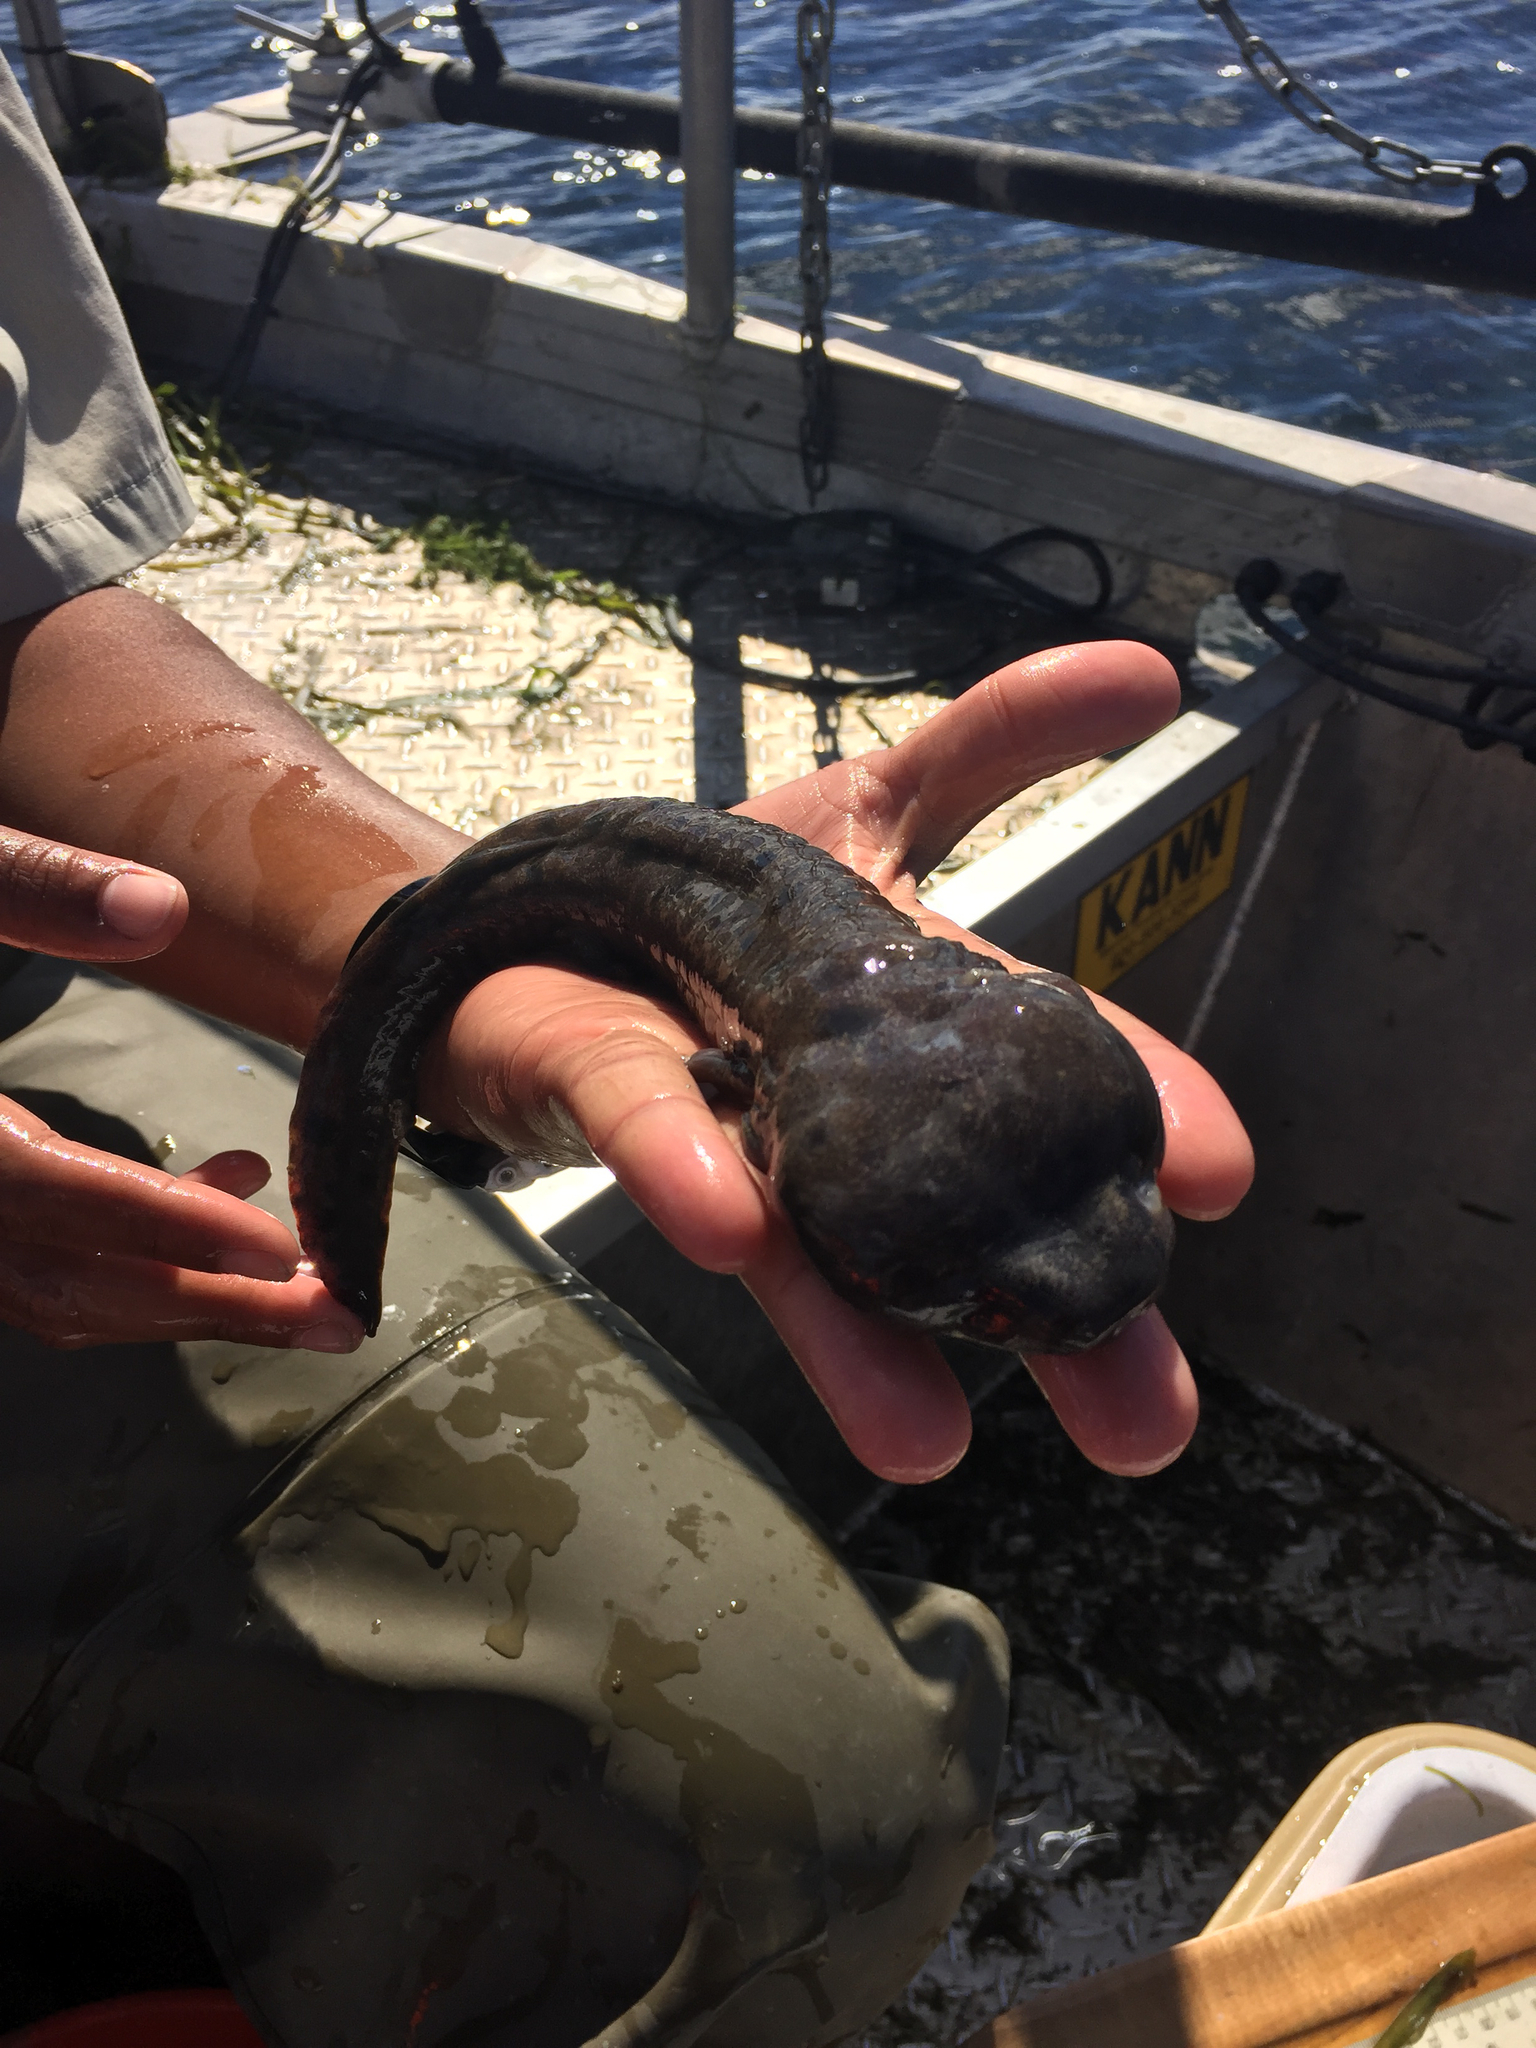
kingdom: Animalia
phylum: Chordata
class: Amphibia
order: Caudata
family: Proteidae
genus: Necturus
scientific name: Necturus maculosus
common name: Mudpuppy
